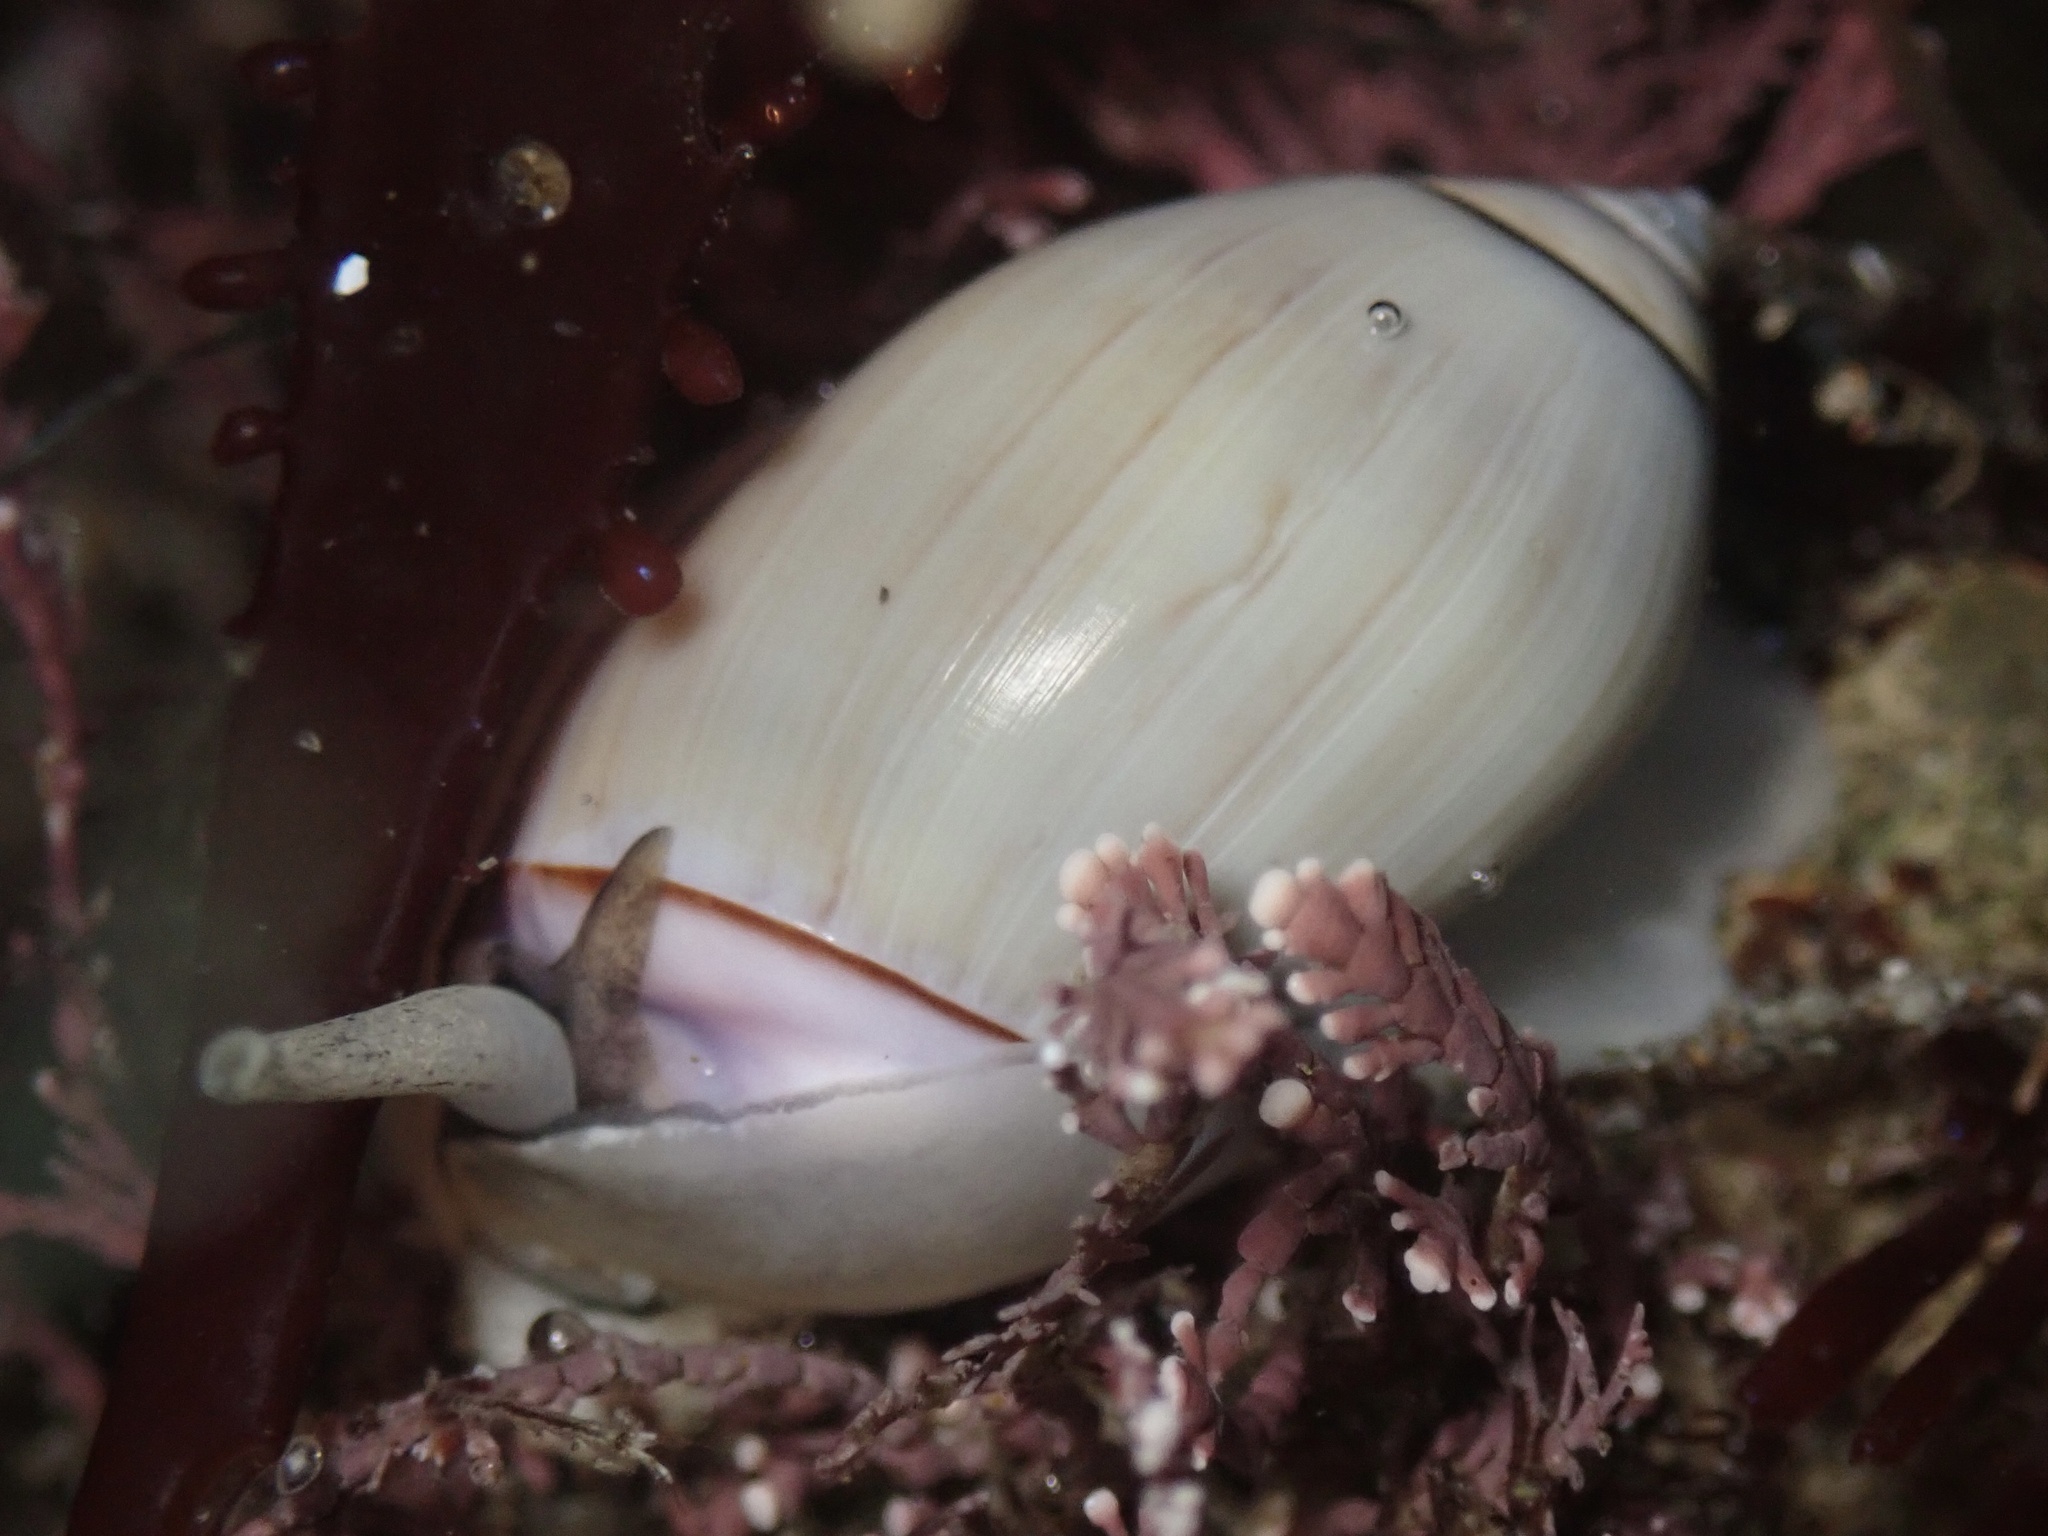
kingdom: Animalia
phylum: Mollusca
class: Gastropoda
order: Neogastropoda
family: Olividae
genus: Callianax
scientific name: Callianax biplicata
